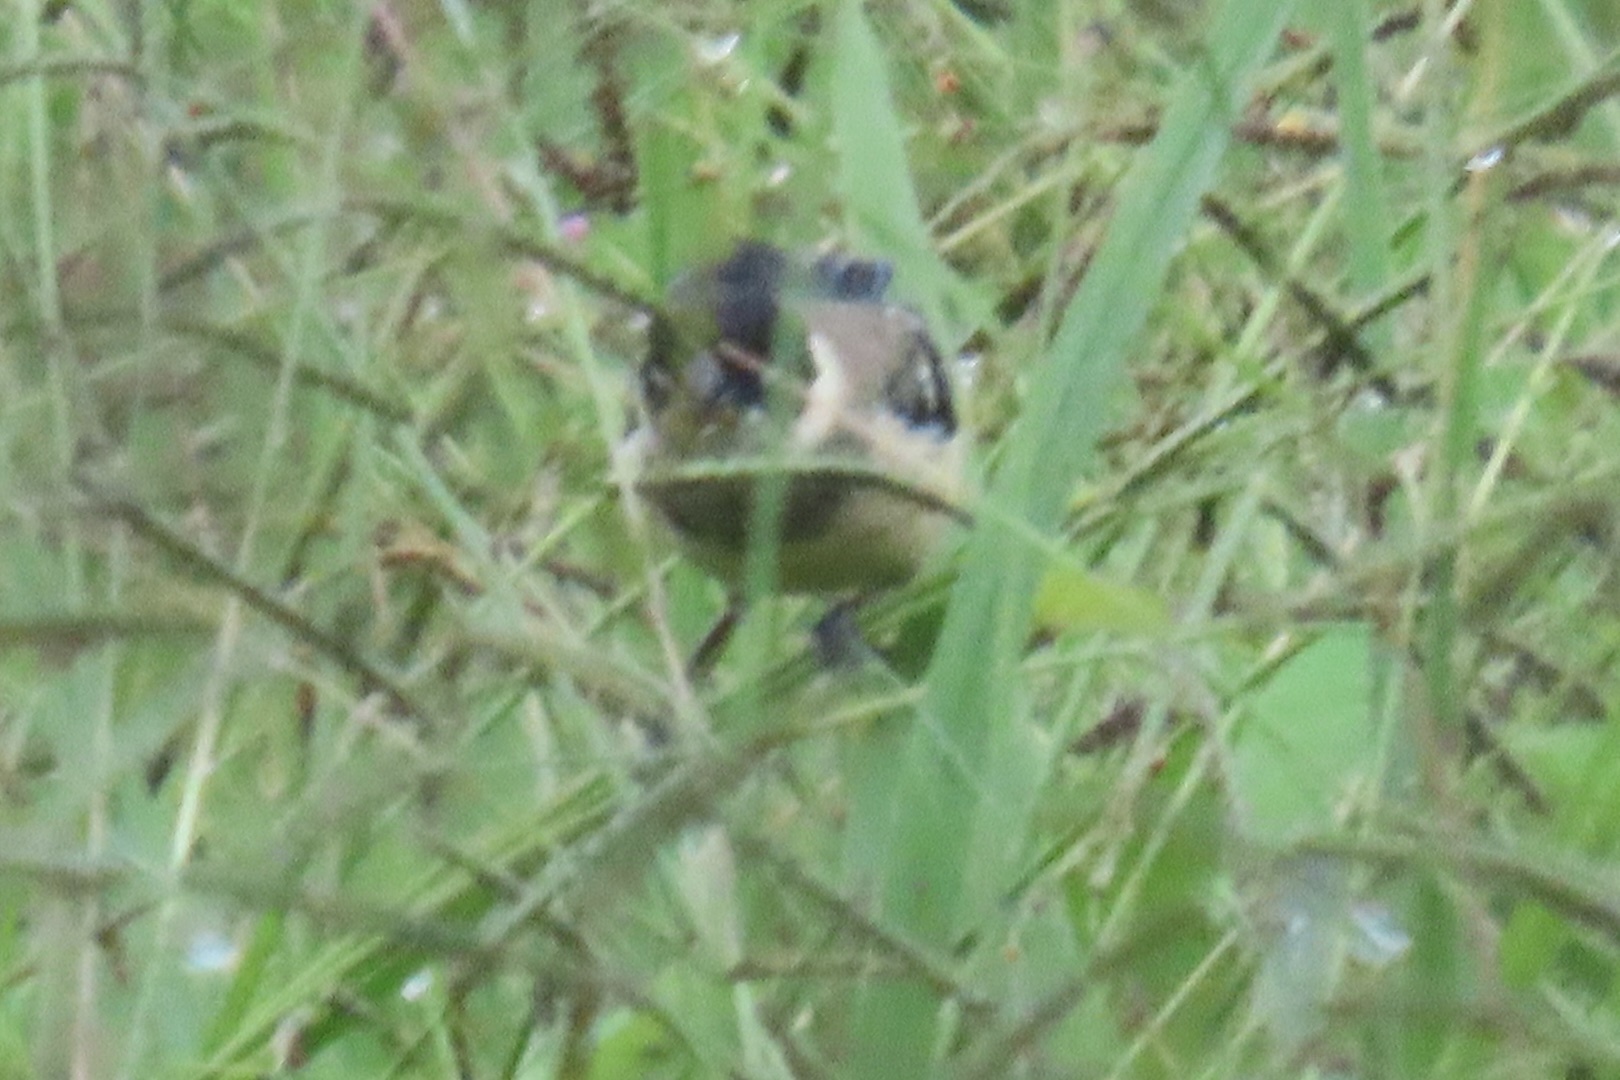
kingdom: Animalia
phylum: Chordata
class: Aves
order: Passeriformes
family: Thraupidae
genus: Sporophila
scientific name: Sporophila morelleti
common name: Morelet's seedeater
